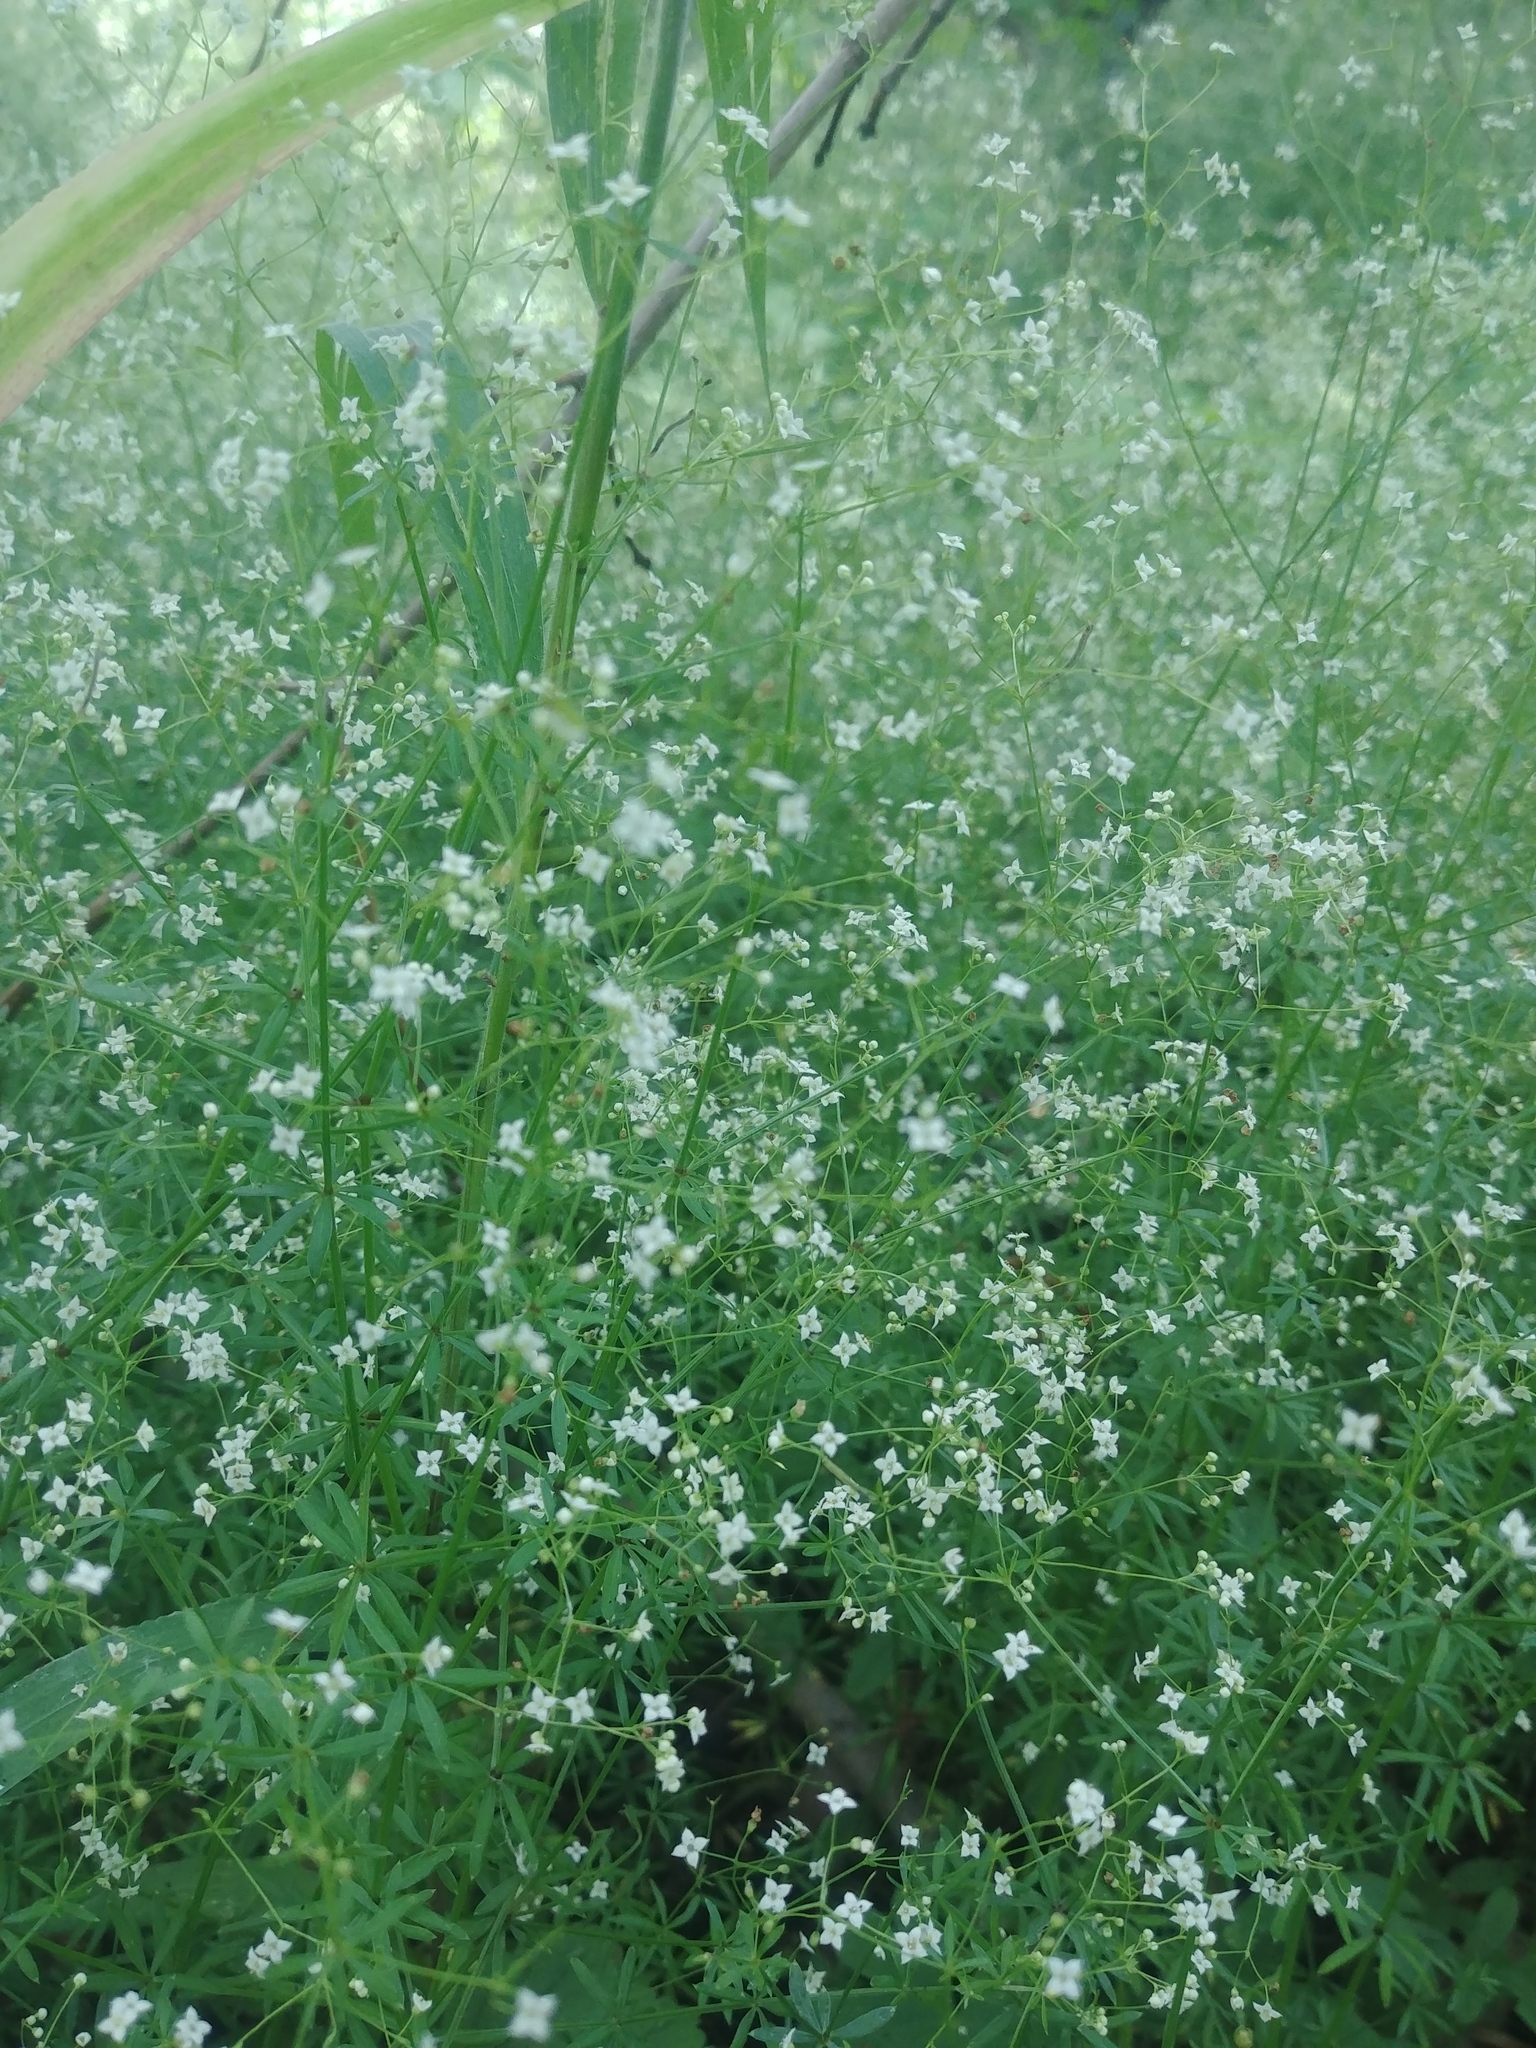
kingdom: Plantae
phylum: Tracheophyta
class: Magnoliopsida
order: Gentianales
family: Rubiaceae
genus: Galium
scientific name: Galium concinnum
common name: Shining bedstraw
